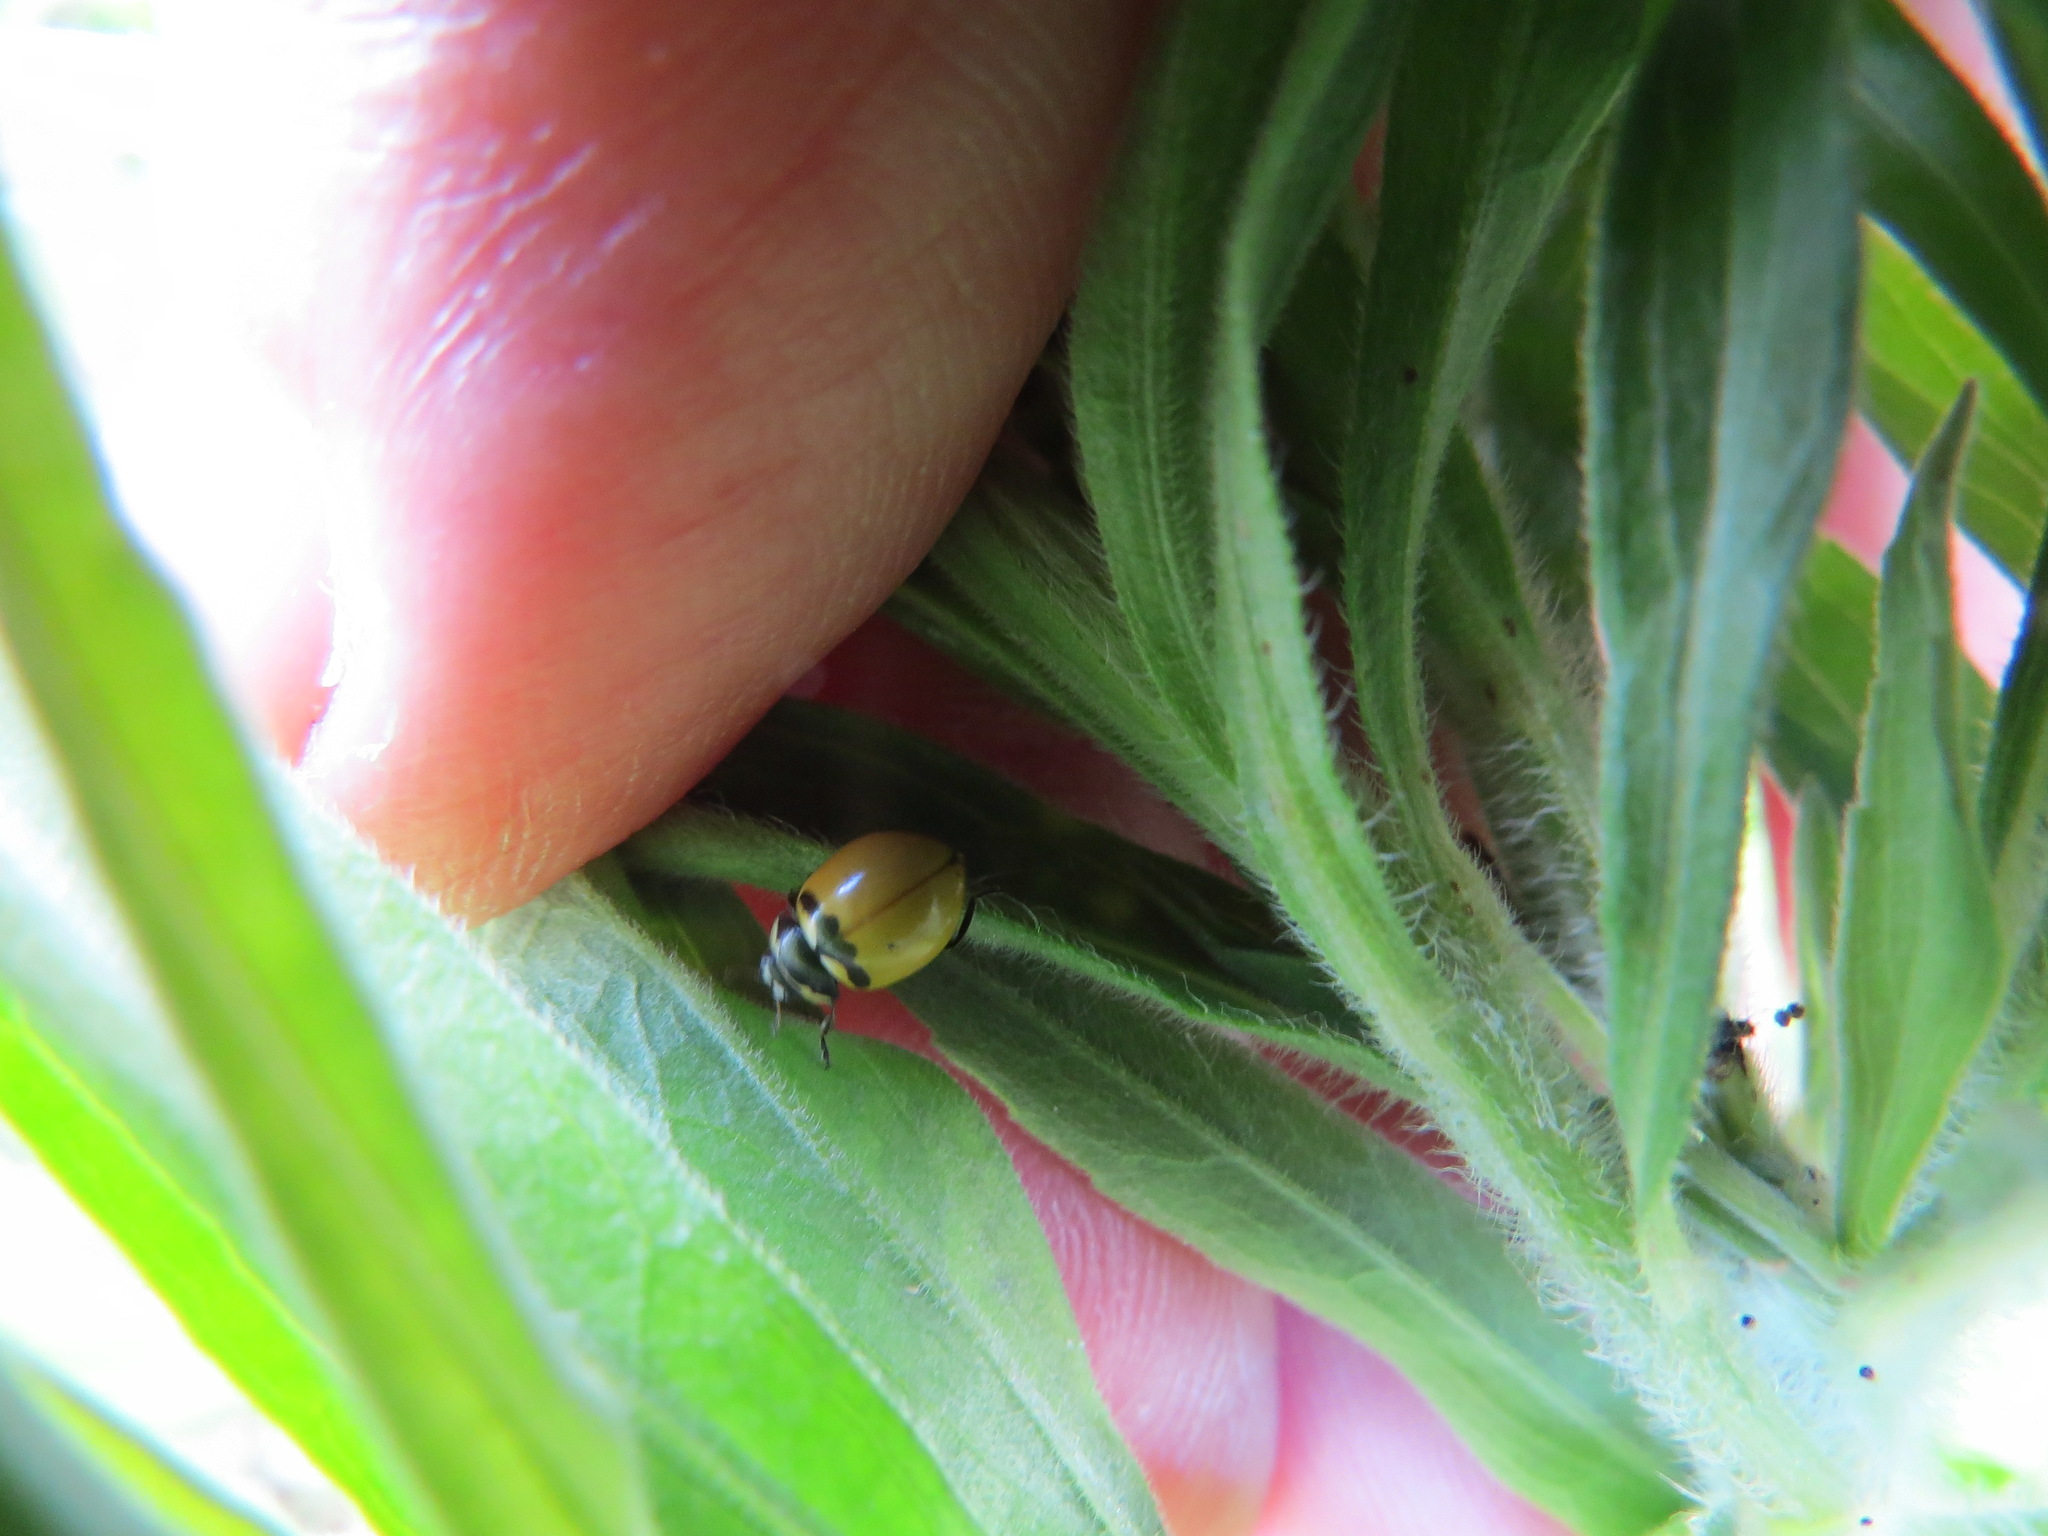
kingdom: Animalia
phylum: Arthropoda
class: Insecta
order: Coleoptera
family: Coccinellidae
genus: Coccinella
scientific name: Coccinella trifasciata
